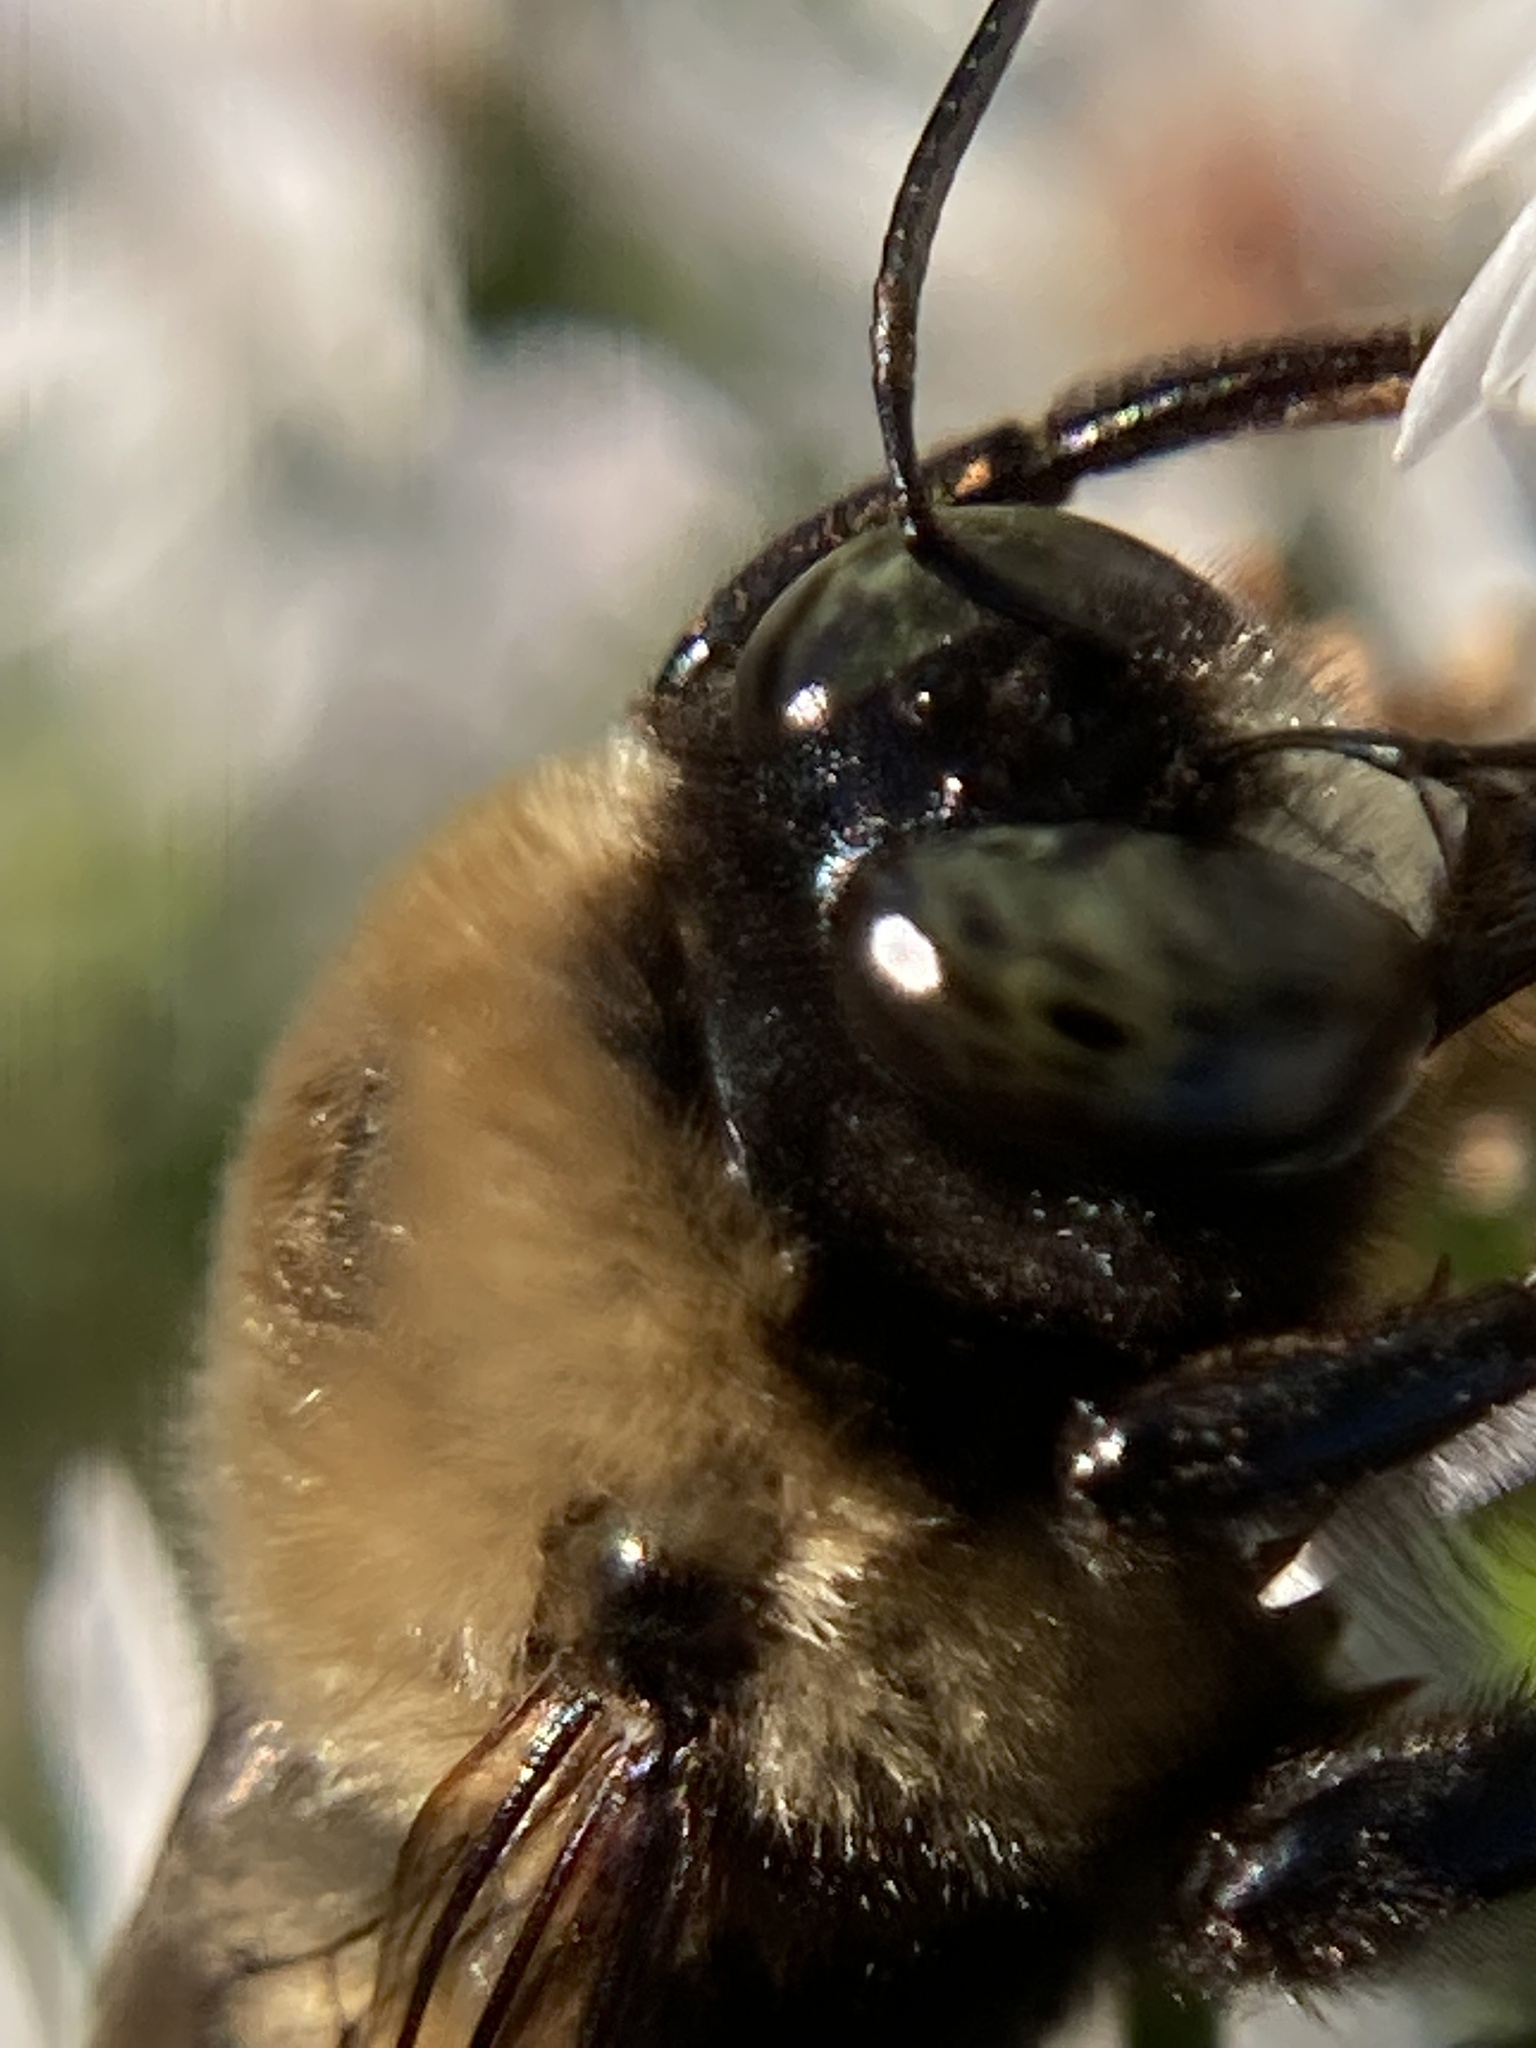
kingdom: Animalia
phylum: Arthropoda
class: Insecta
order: Hymenoptera
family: Apidae
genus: Xylocopa
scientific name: Xylocopa virginica
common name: Carpenter bee
